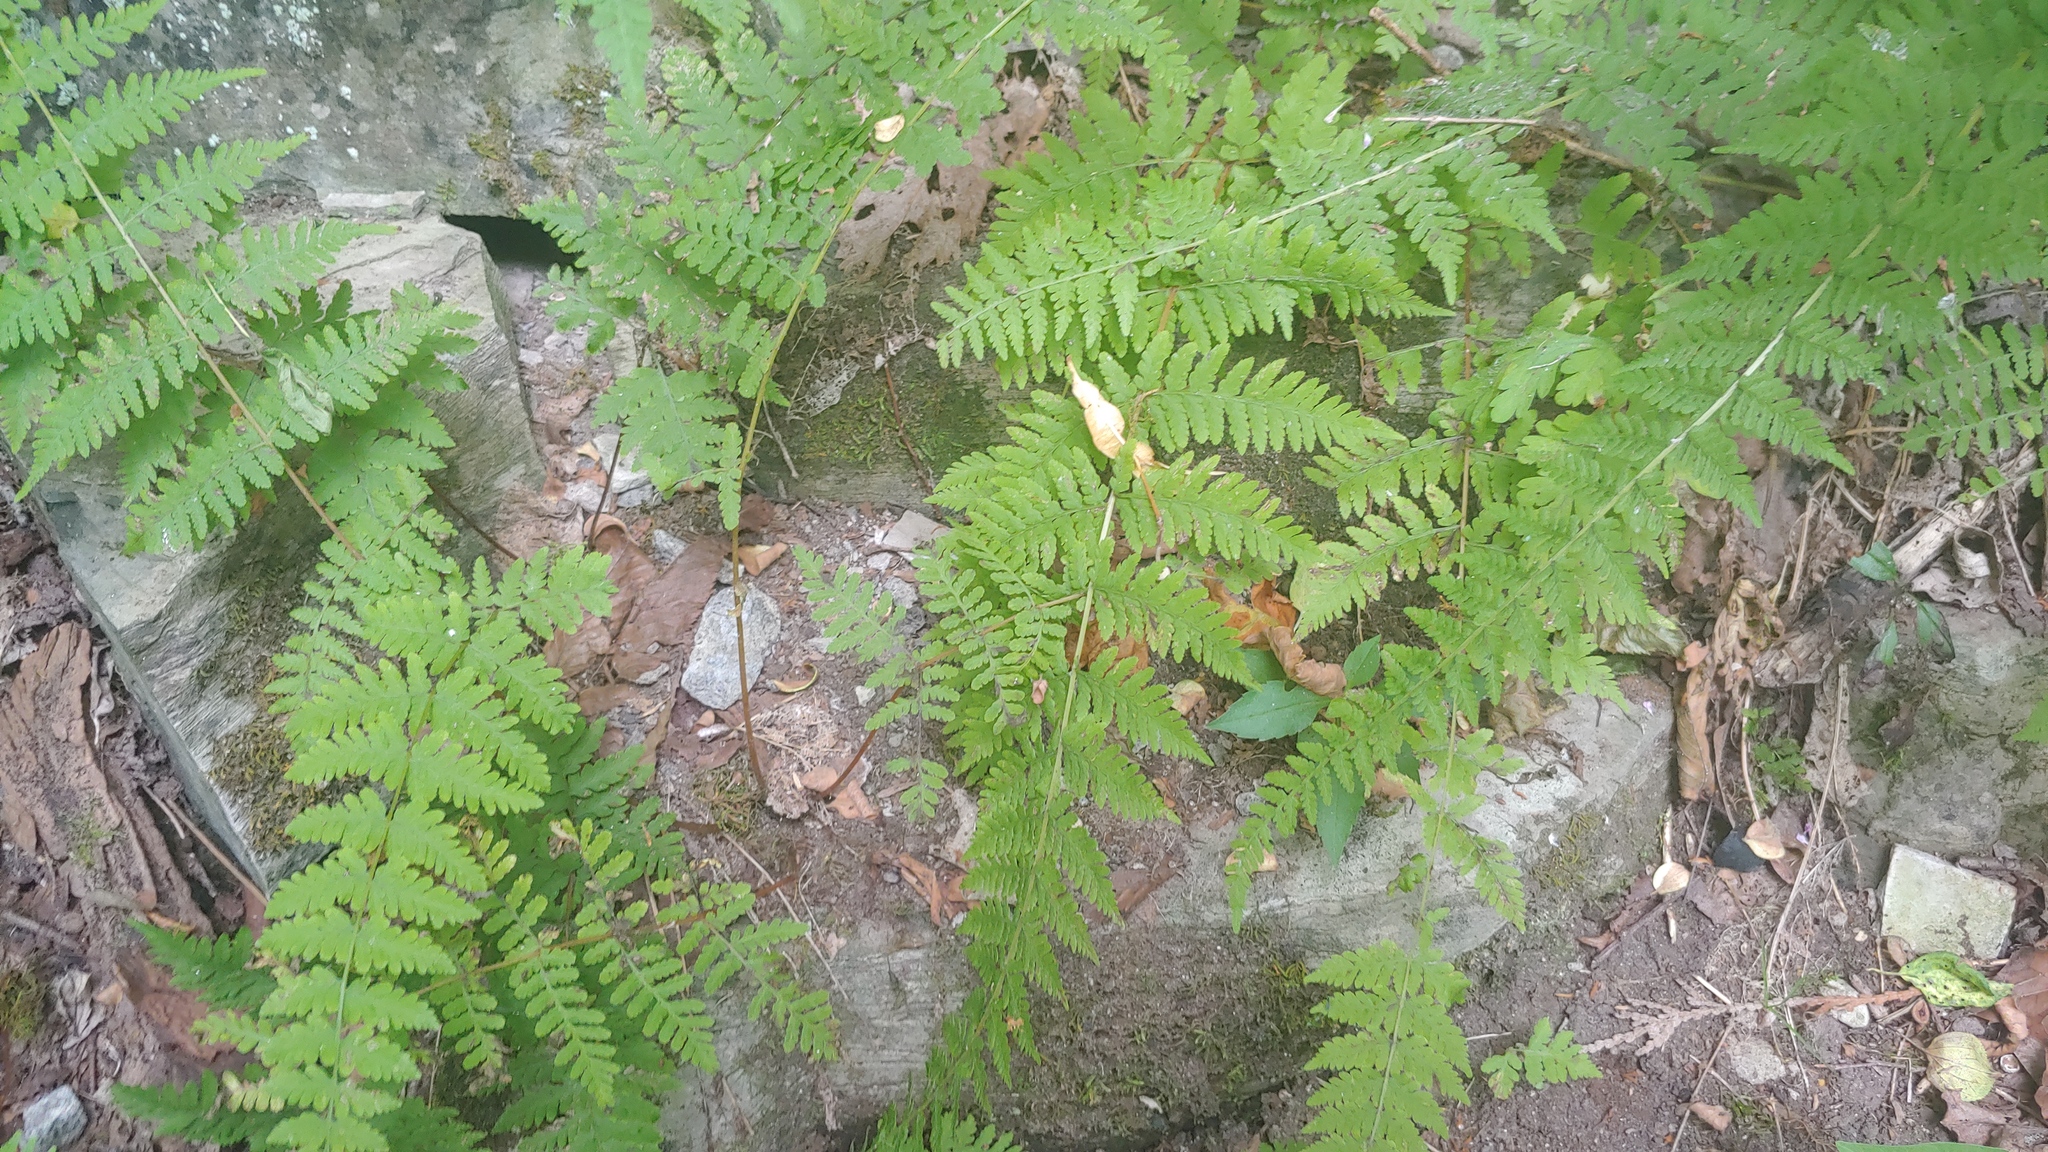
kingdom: Plantae
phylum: Tracheophyta
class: Polypodiopsida
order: Polypodiales
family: Cystopteridaceae
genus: Cystopteris
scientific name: Cystopteris bulbifera
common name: Bulblet bladder fern
